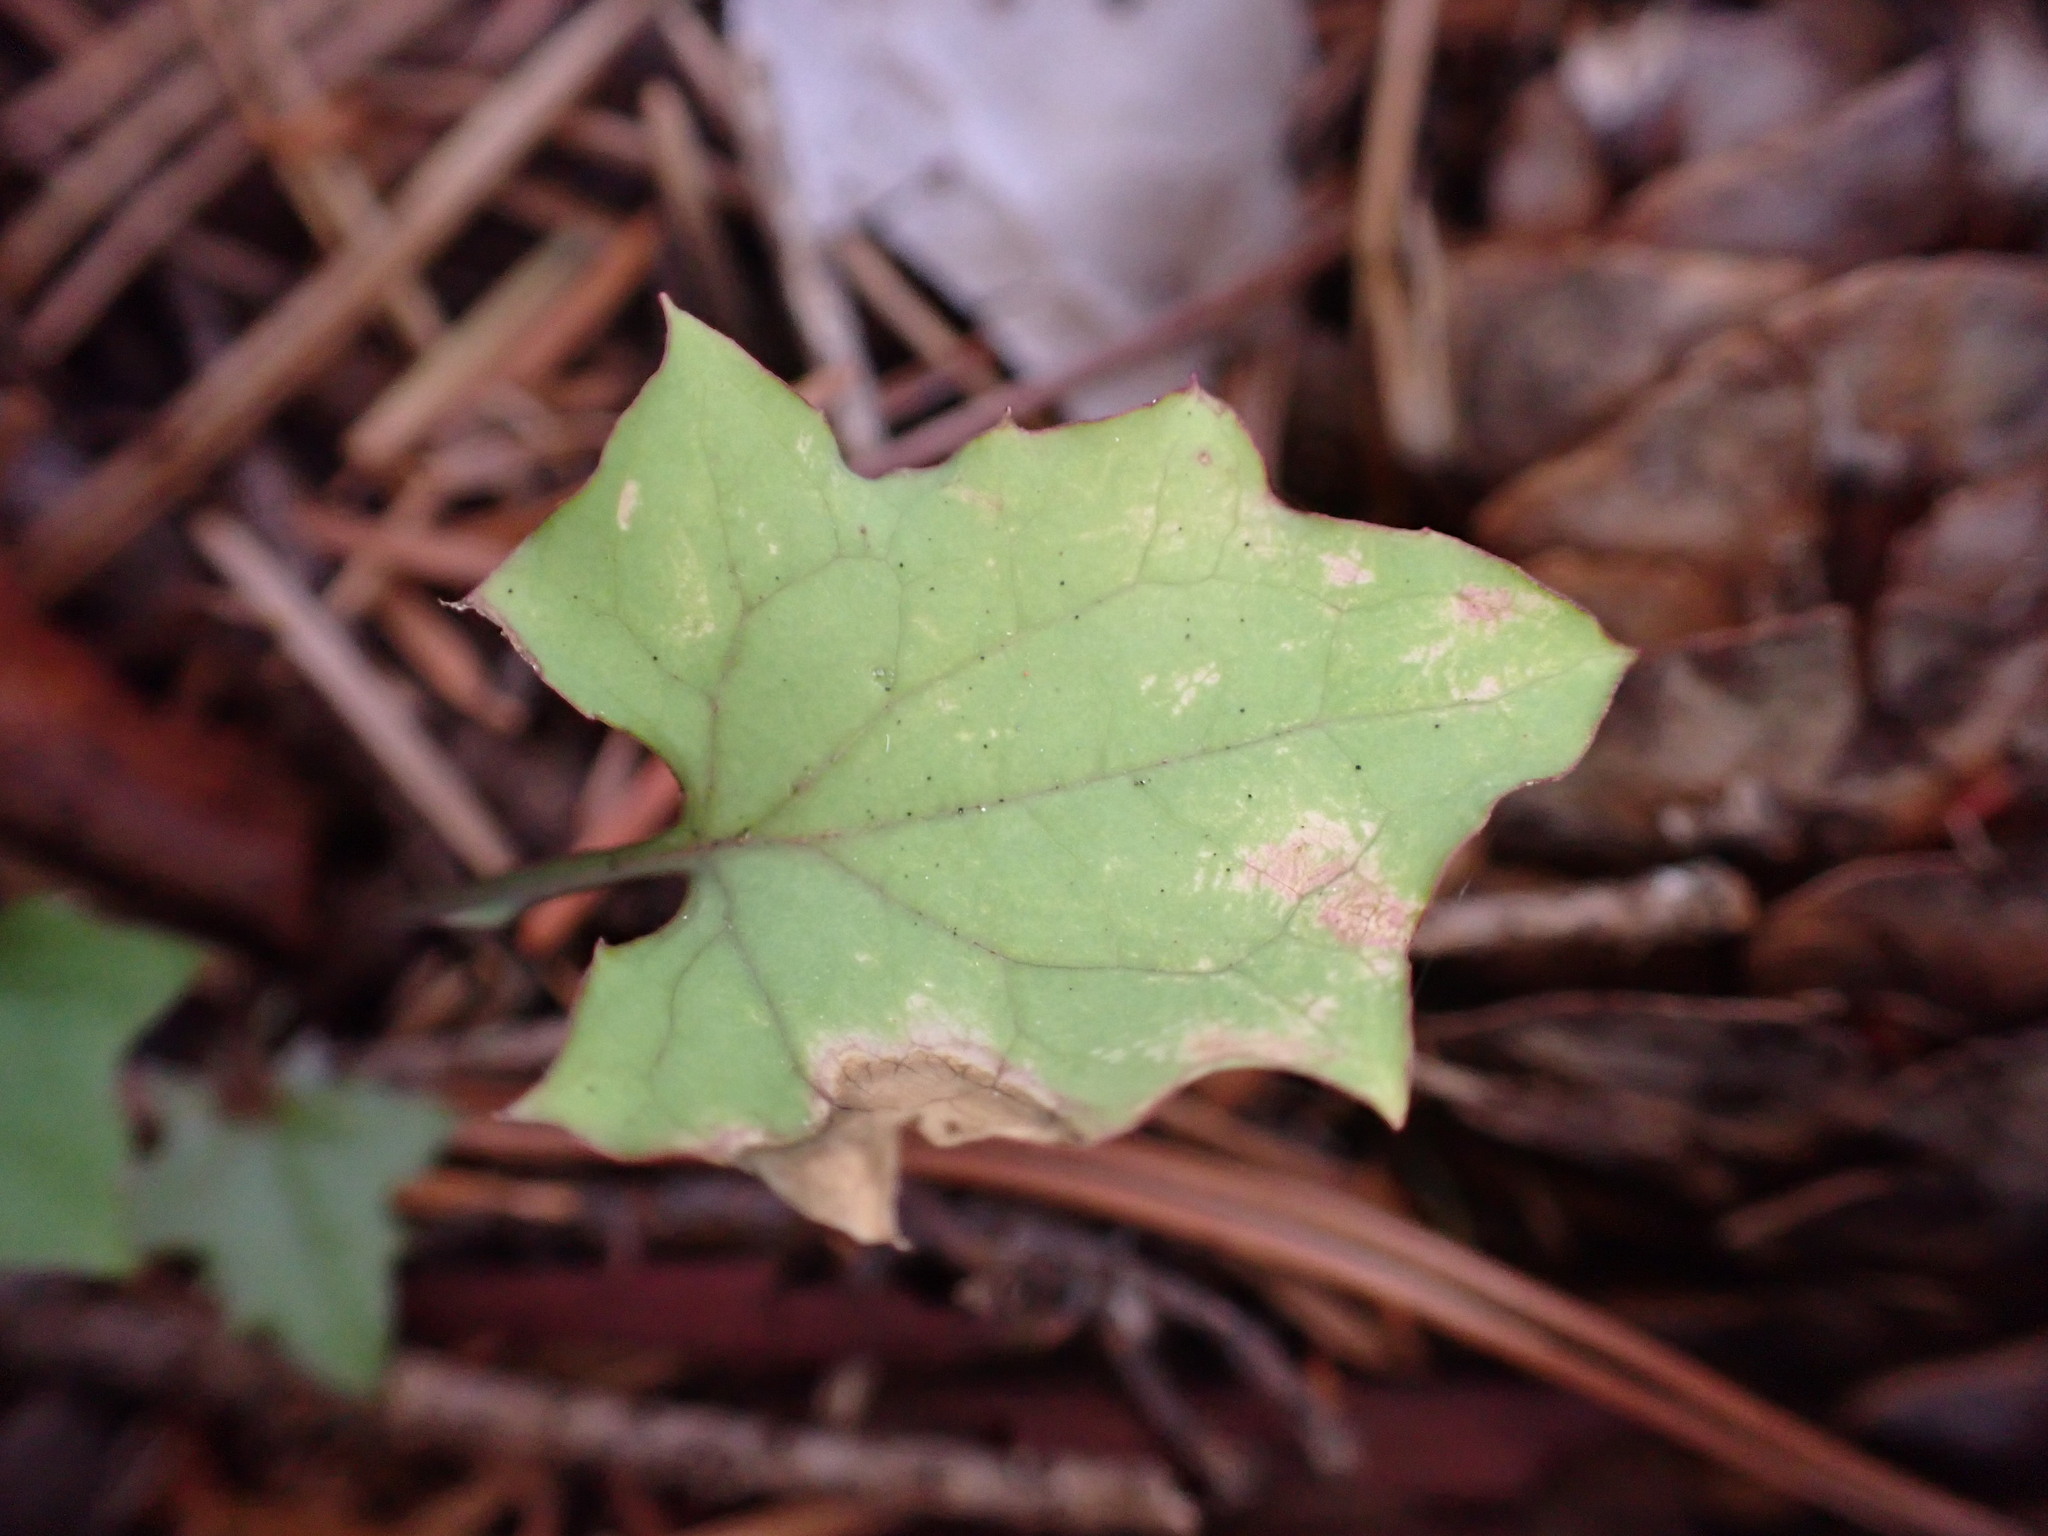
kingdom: Plantae
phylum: Tracheophyta
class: Magnoliopsida
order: Asterales
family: Asteraceae
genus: Mycelis
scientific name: Mycelis muralis
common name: Wall lettuce
